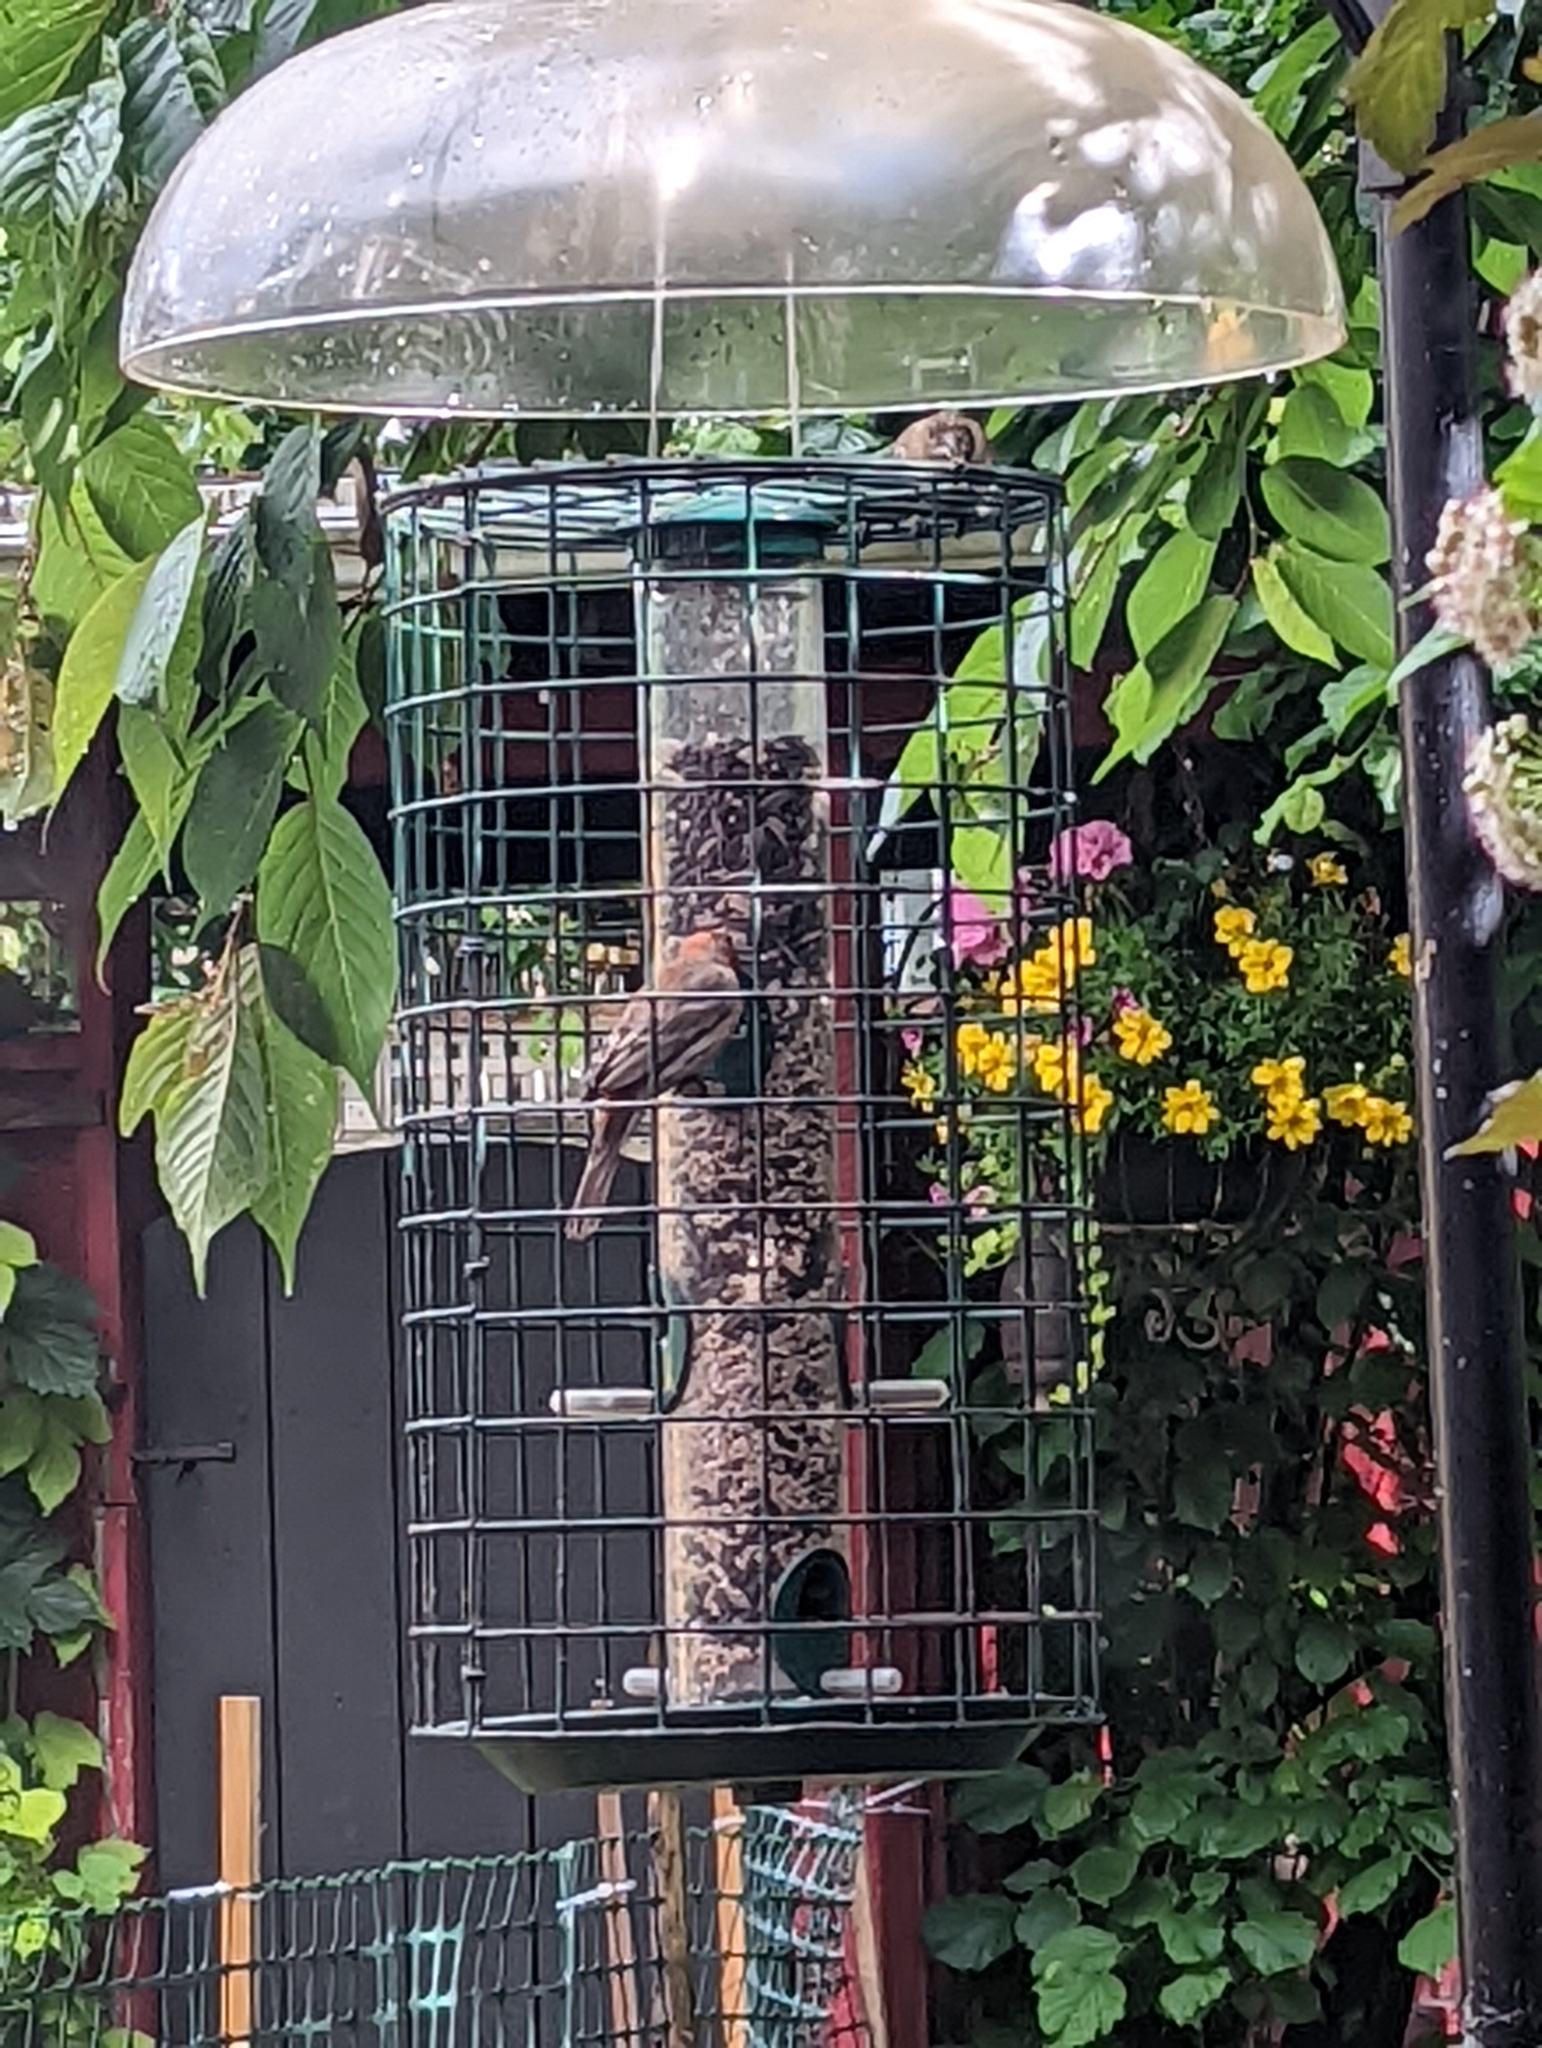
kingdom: Animalia
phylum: Chordata
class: Aves
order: Passeriformes
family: Fringillidae
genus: Haemorhous
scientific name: Haemorhous mexicanus
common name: House finch
